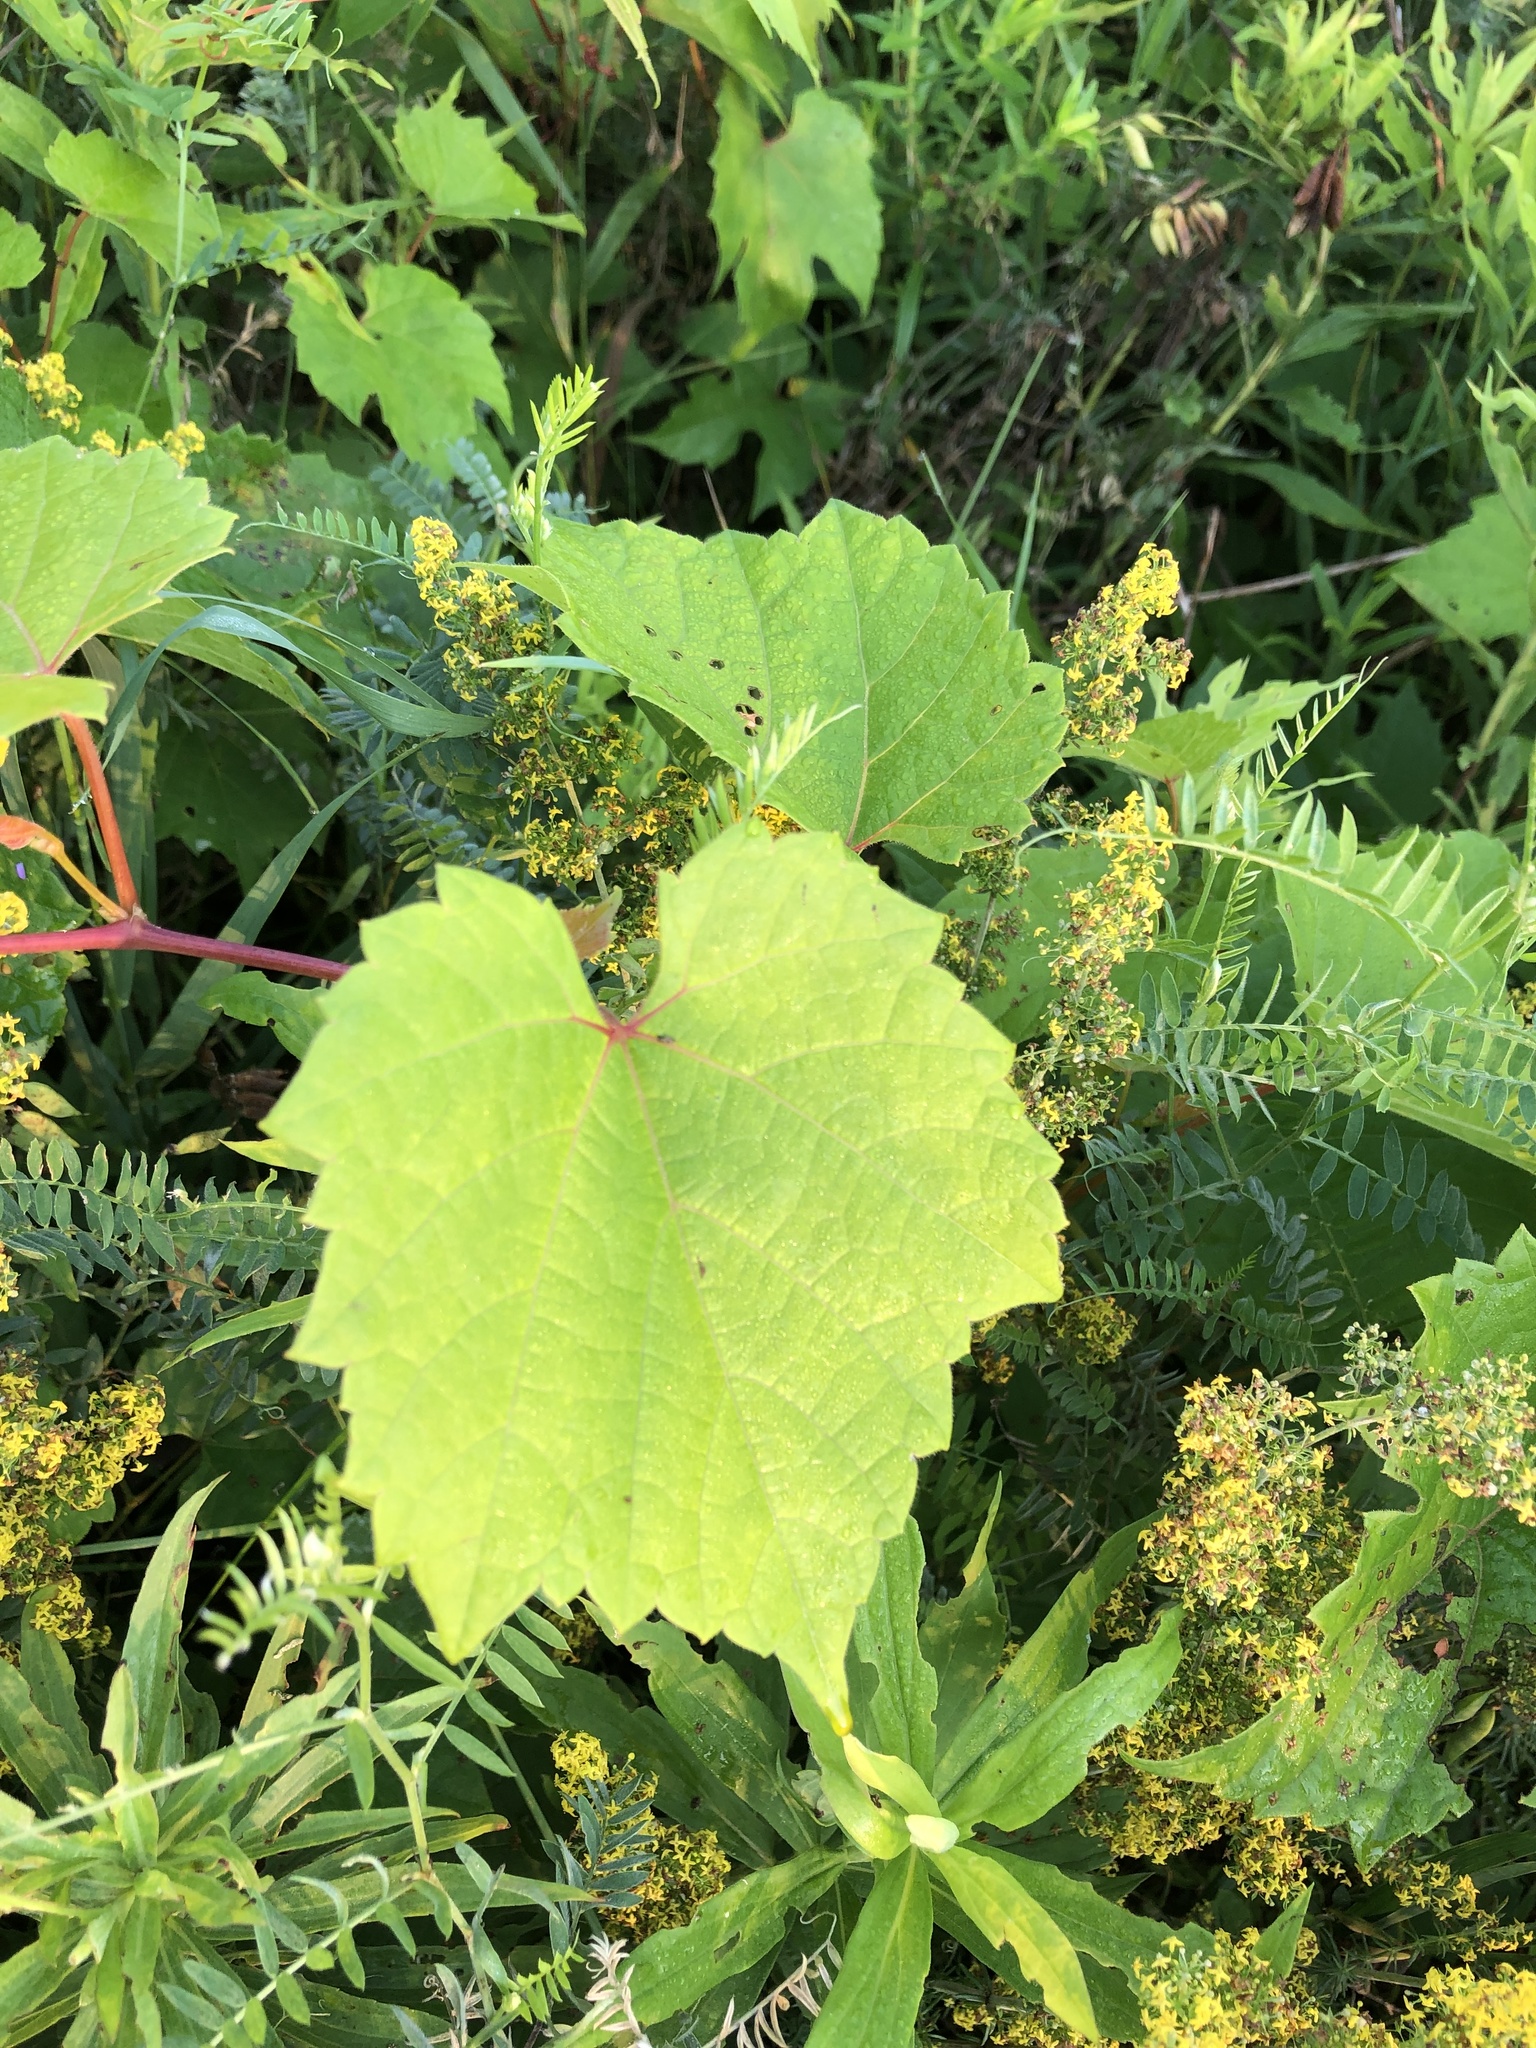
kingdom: Plantae
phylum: Tracheophyta
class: Magnoliopsida
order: Vitales
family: Vitaceae
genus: Vitis
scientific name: Vitis riparia
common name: Frost grape
